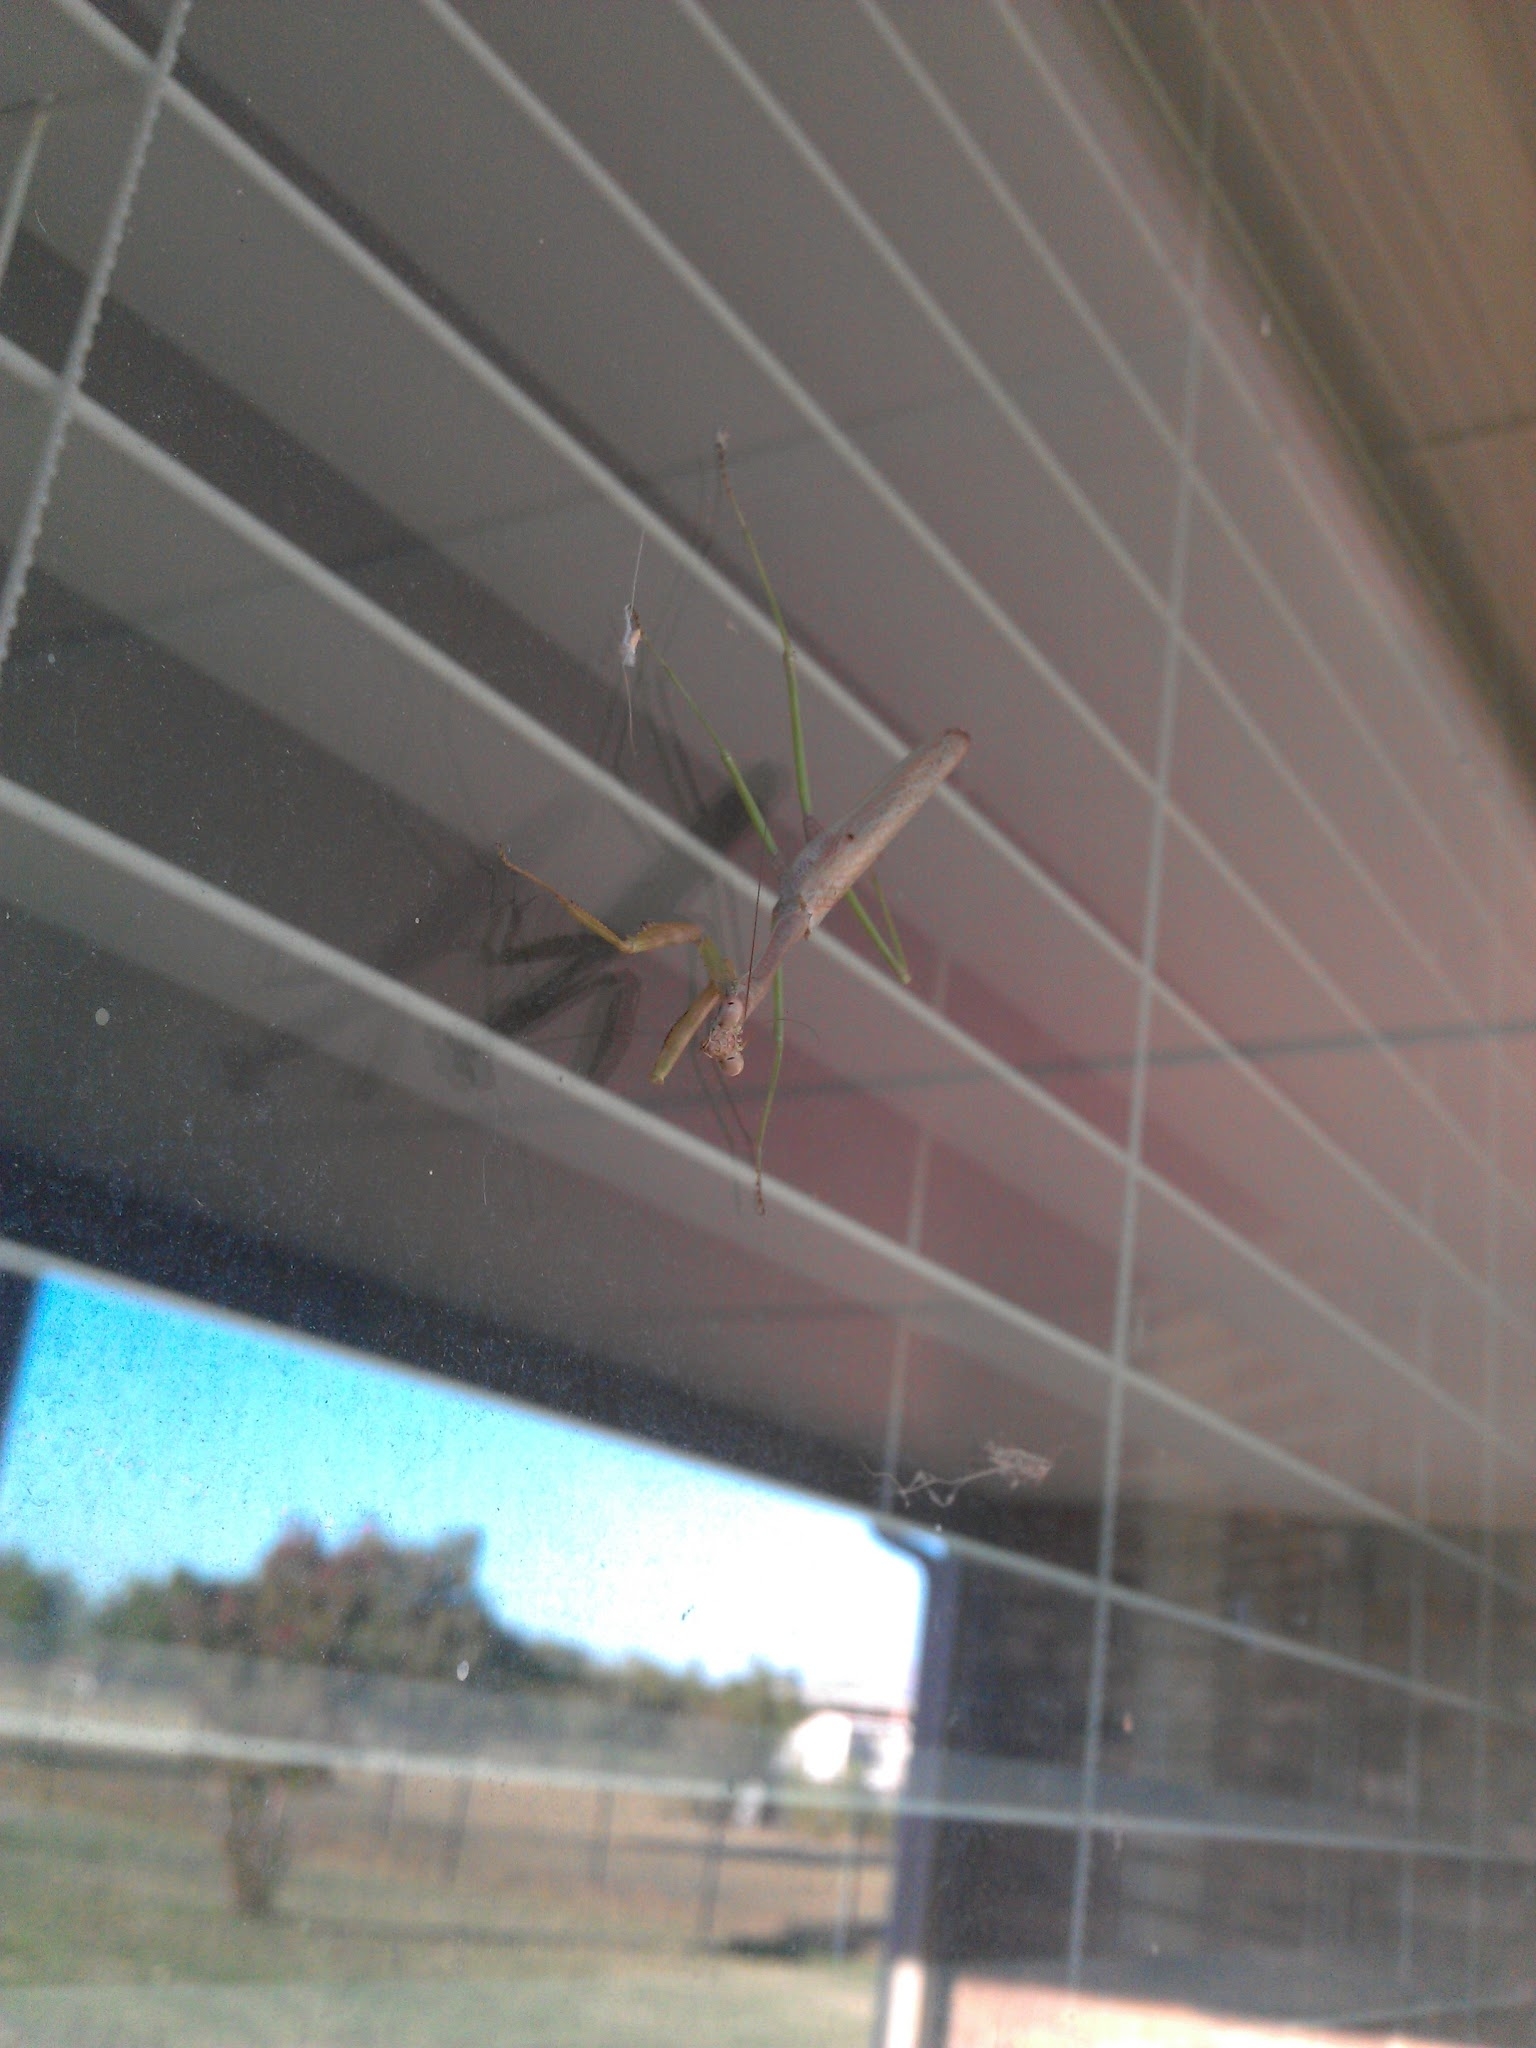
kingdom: Animalia
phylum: Arthropoda
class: Insecta
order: Mantodea
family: Mantidae
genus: Stagmomantis
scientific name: Stagmomantis carolina
